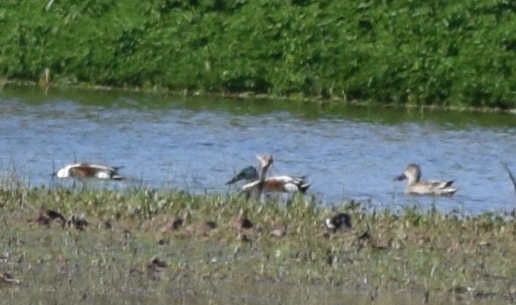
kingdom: Animalia
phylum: Chordata
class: Aves
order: Anseriformes
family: Anatidae
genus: Spatula
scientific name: Spatula clypeata
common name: Northern shoveler
